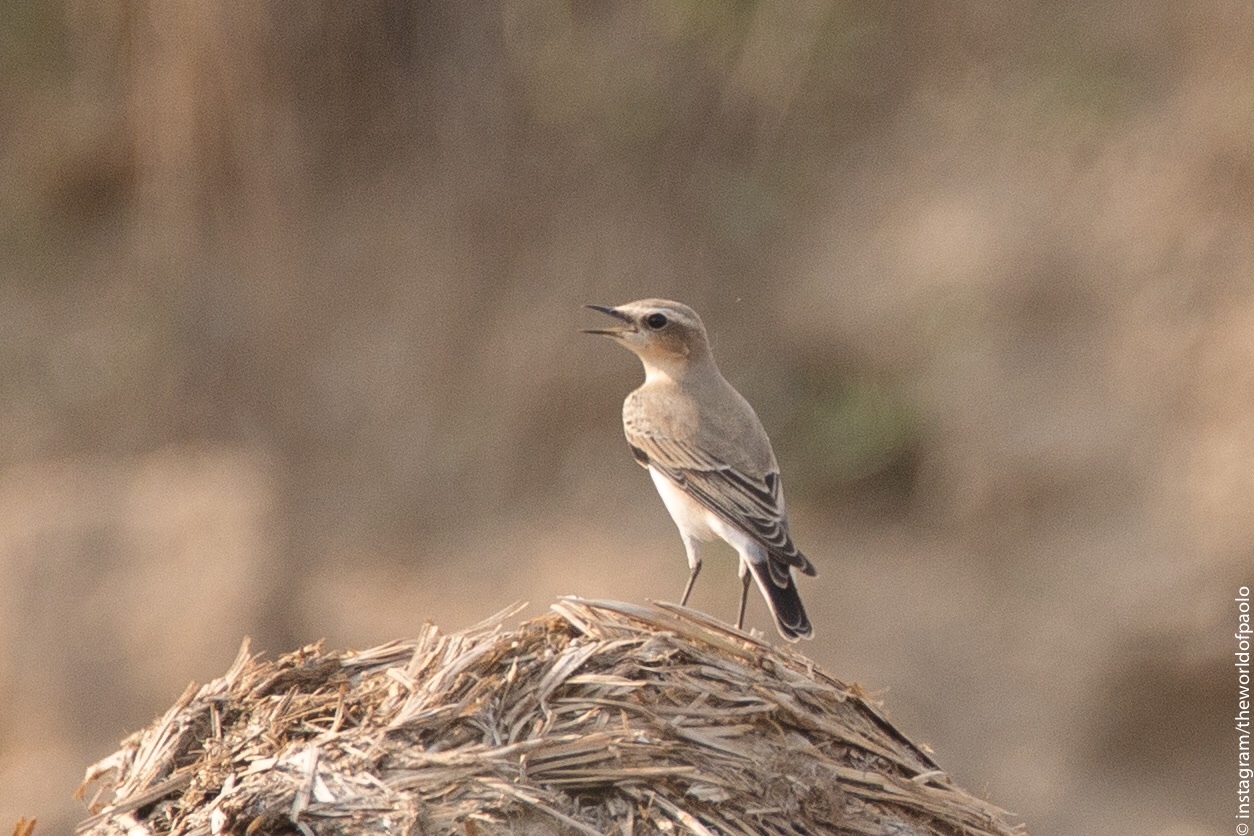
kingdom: Animalia
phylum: Chordata
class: Aves
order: Passeriformes
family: Muscicapidae
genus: Oenanthe
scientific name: Oenanthe oenanthe
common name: Northern wheatear
